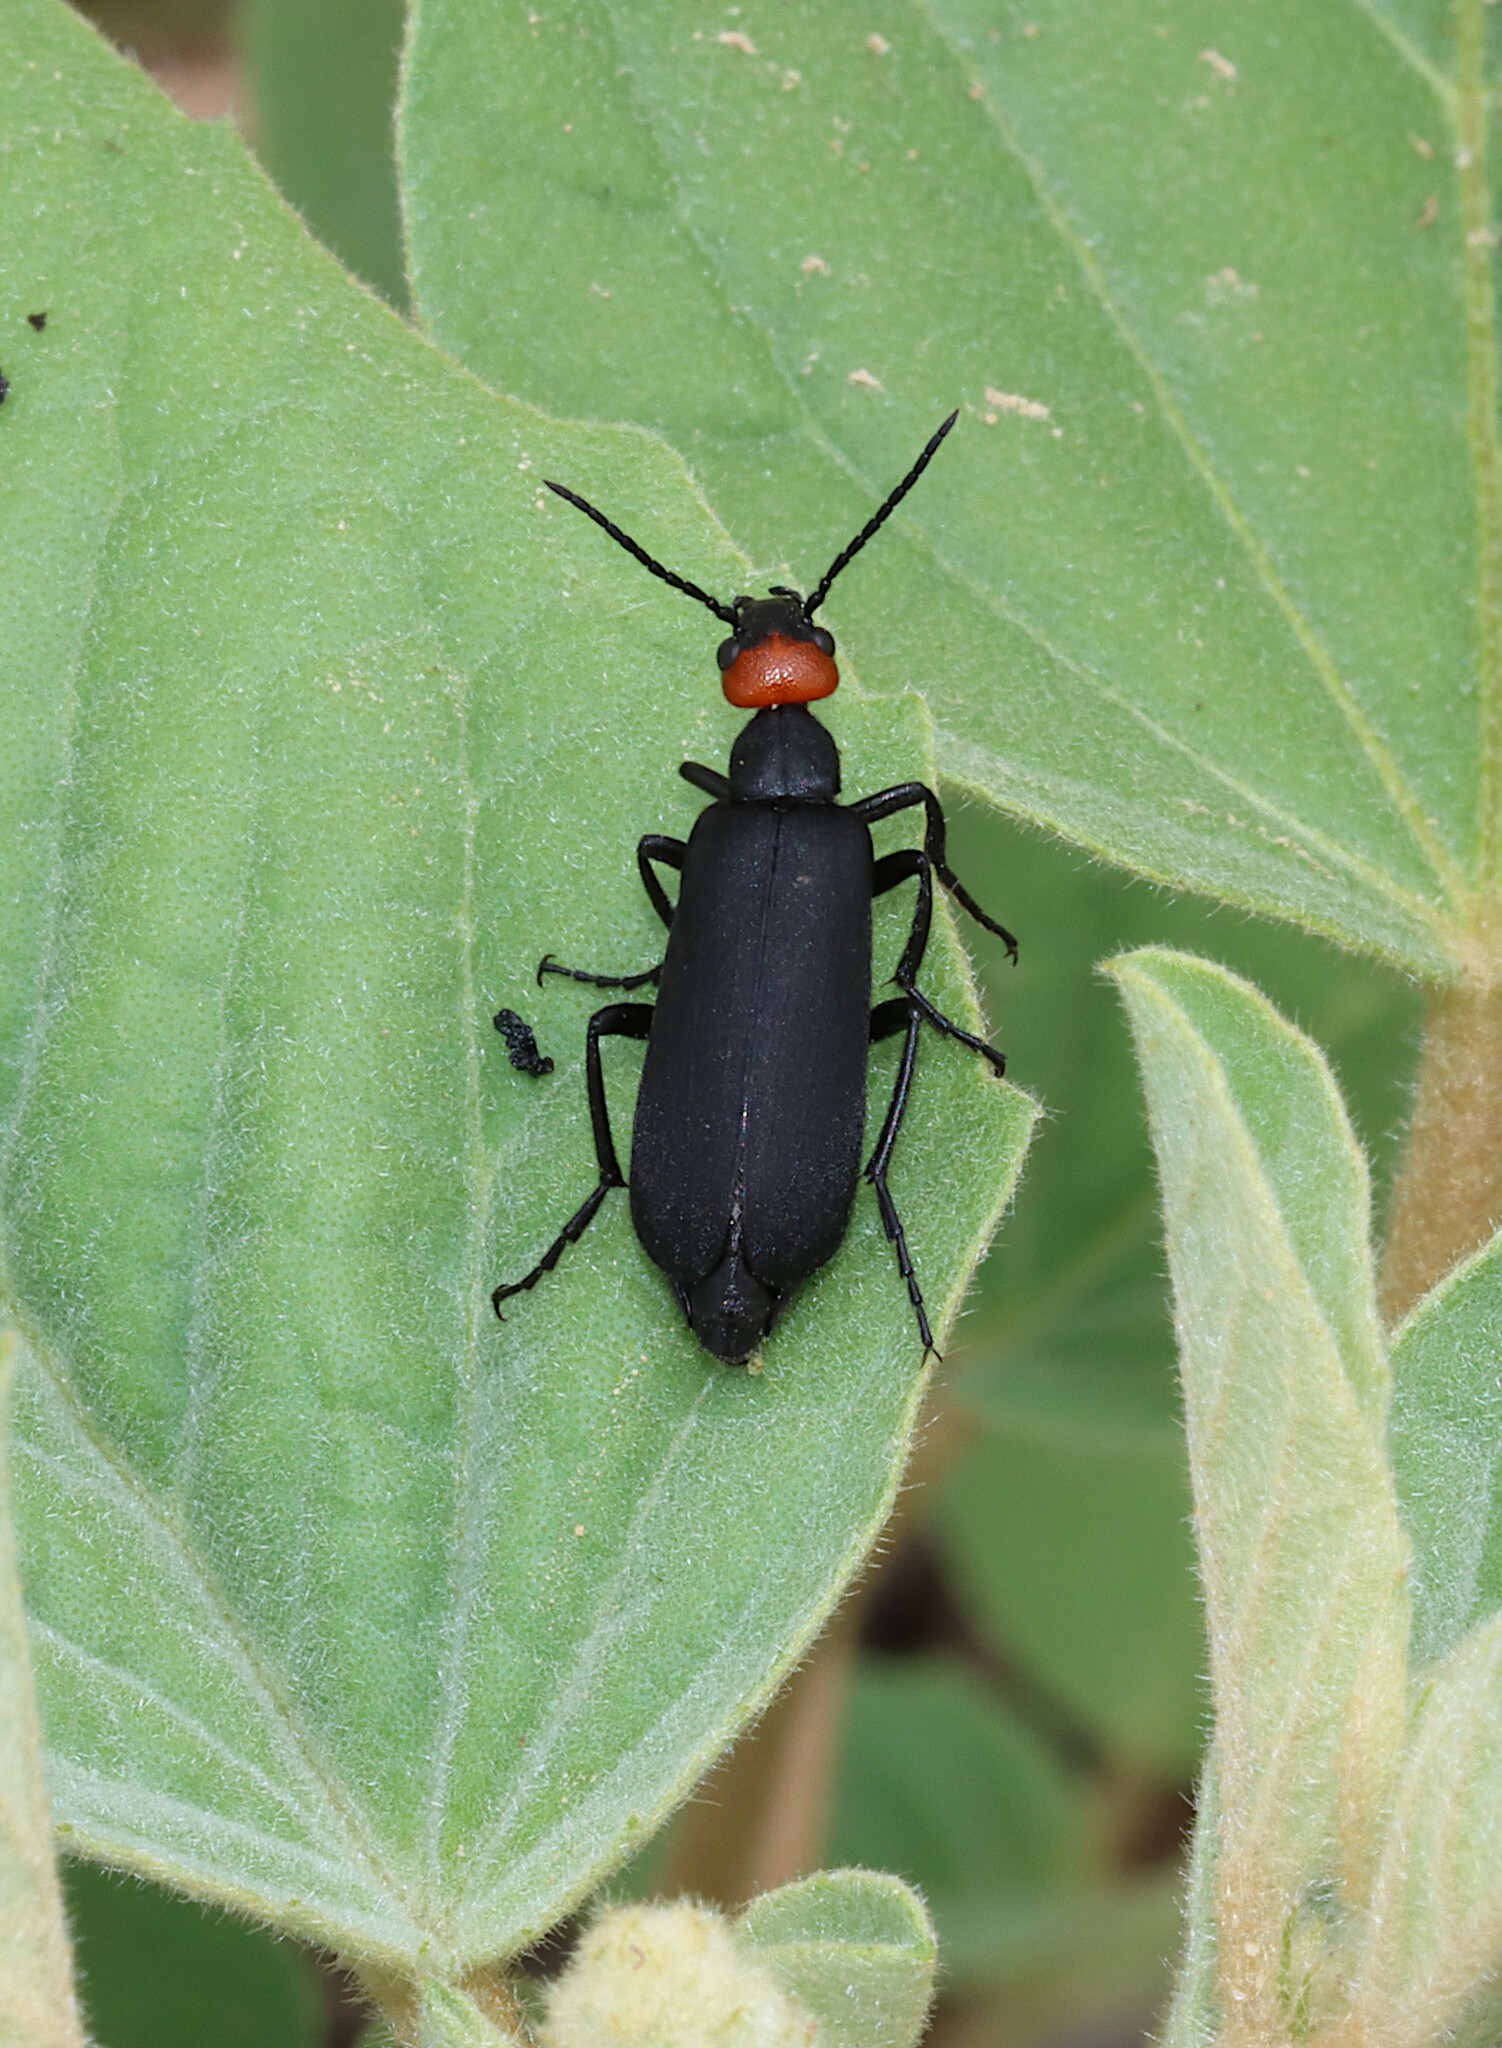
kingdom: Animalia
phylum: Arthropoda
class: Insecta
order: Coleoptera
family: Meloidae
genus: Epicauta
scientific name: Epicauta atrata
